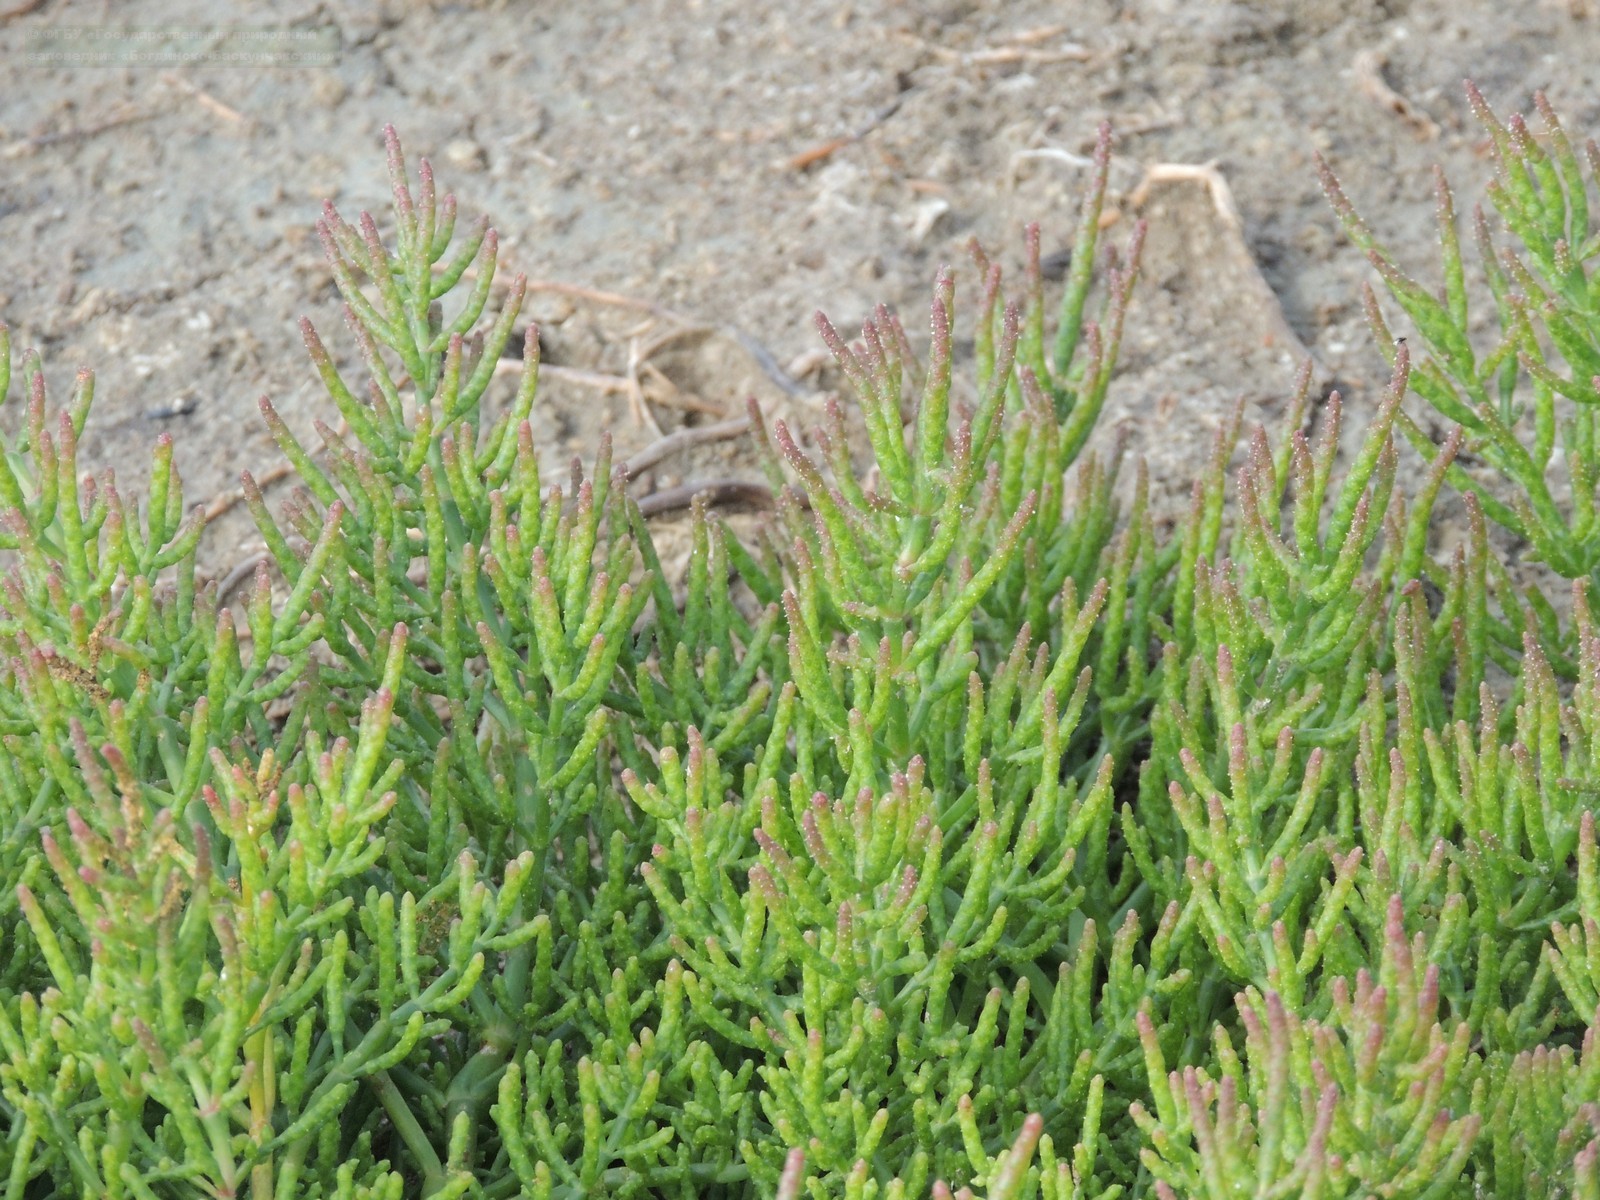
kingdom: Plantae
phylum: Tracheophyta
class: Magnoliopsida
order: Caryophyllales
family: Amaranthaceae
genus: Salicornia
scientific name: Salicornia perennans
